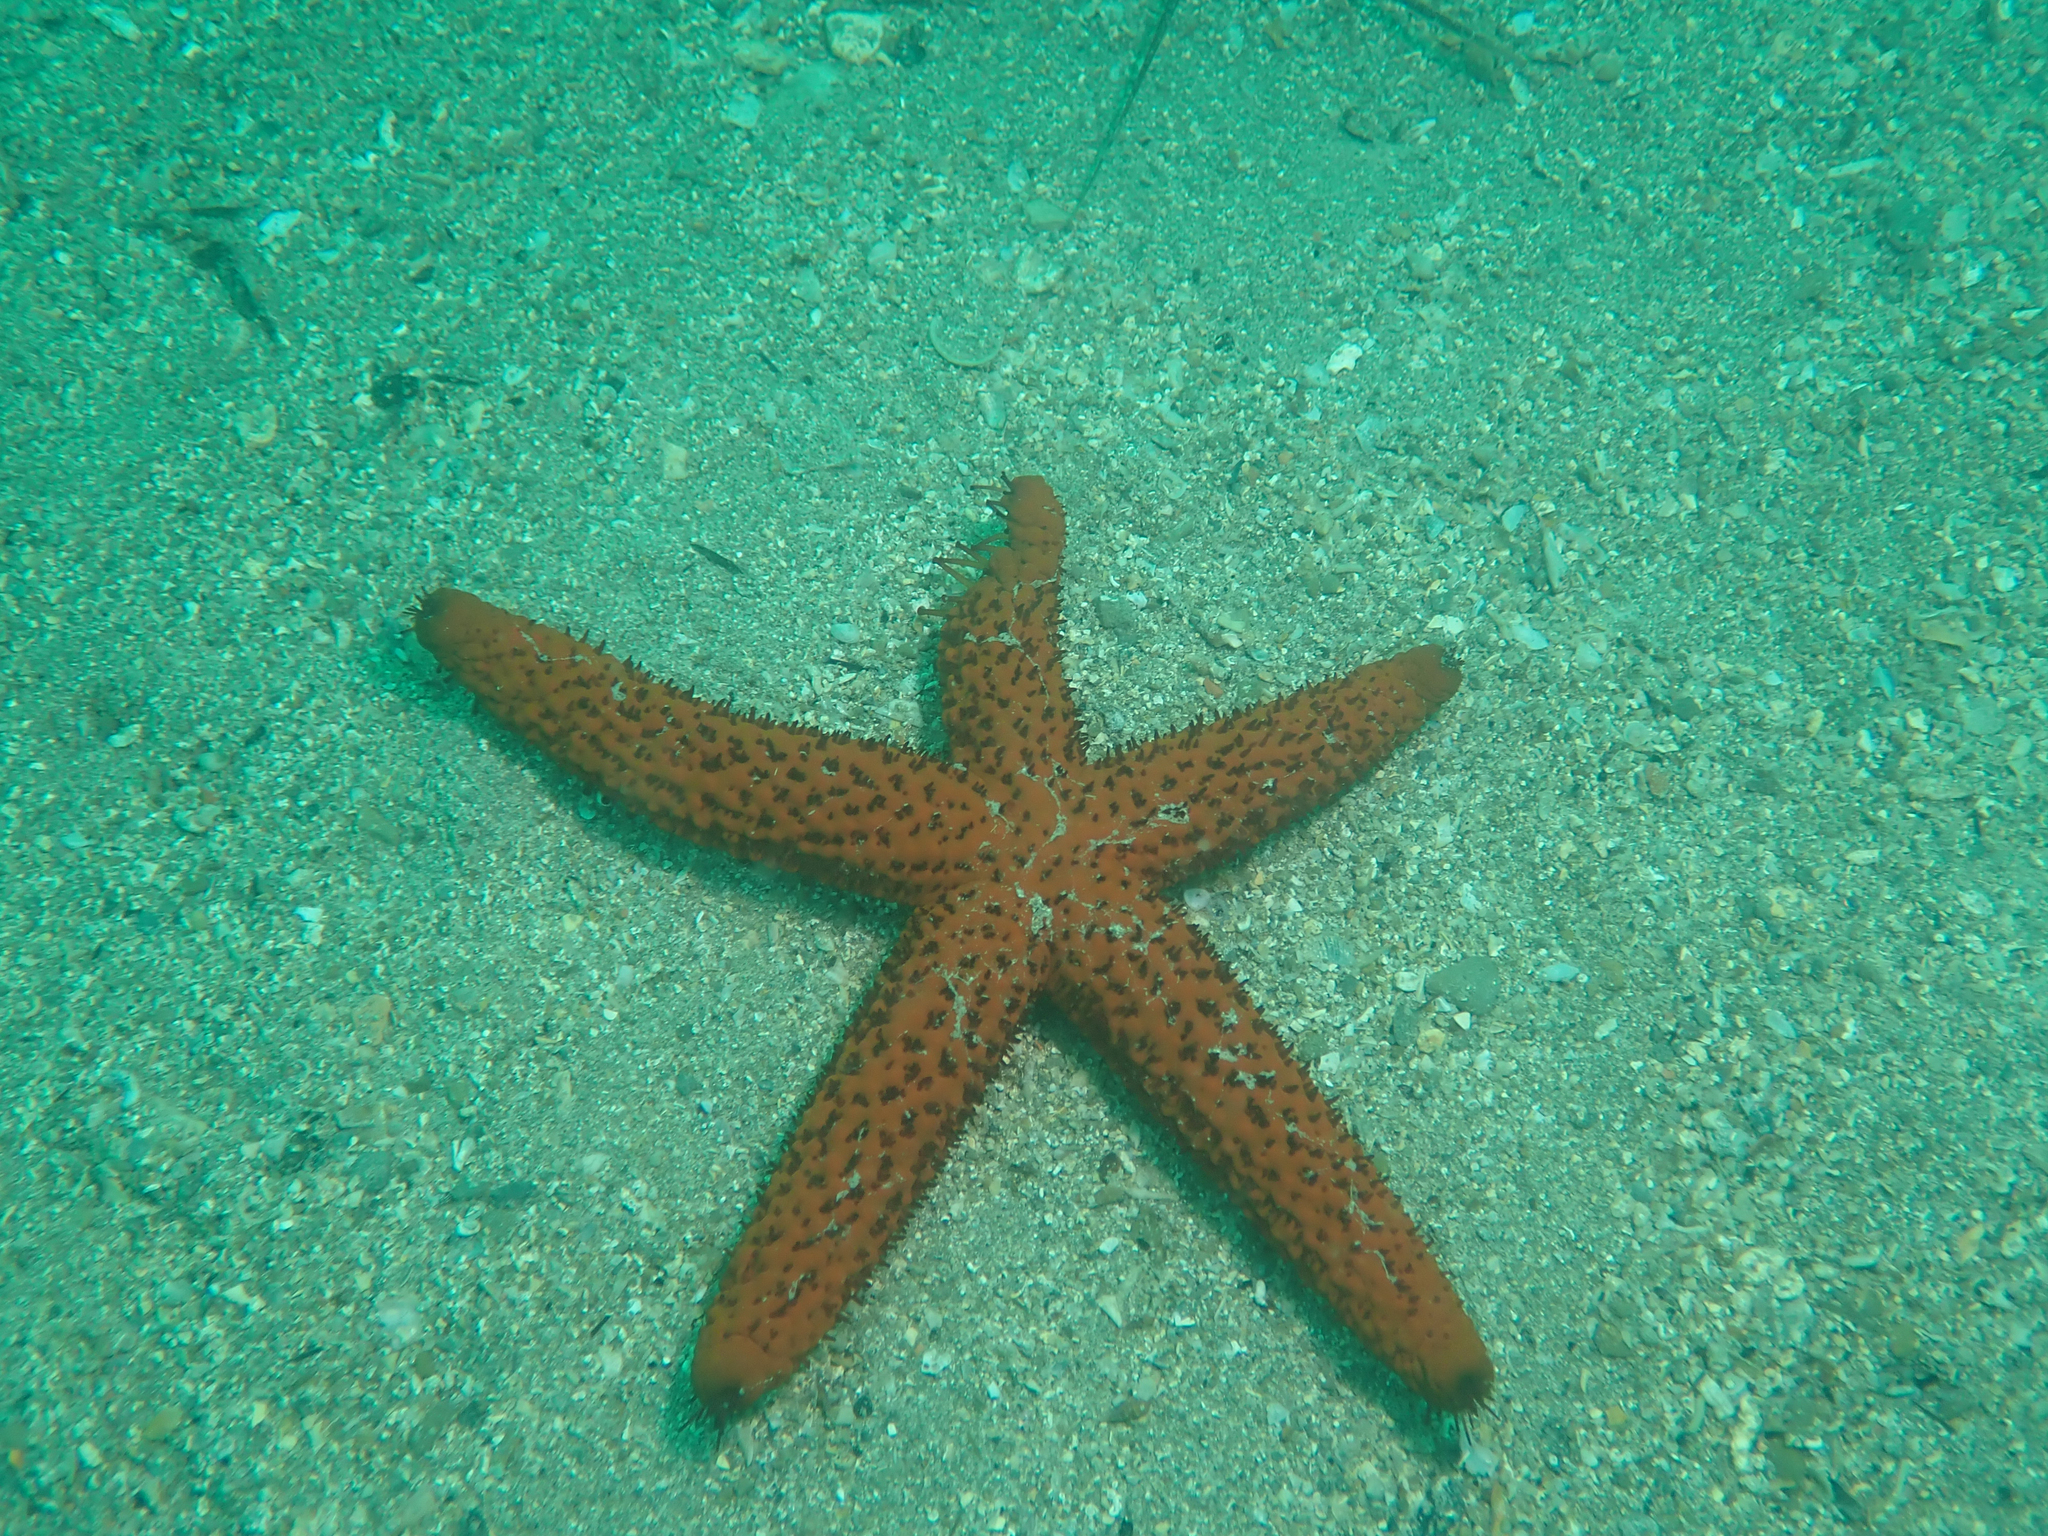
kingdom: Animalia
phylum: Echinodermata
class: Asteroidea
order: Spinulosida
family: Echinasteridae
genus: Echinaster
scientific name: Echinaster sepositus
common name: Red starfish
